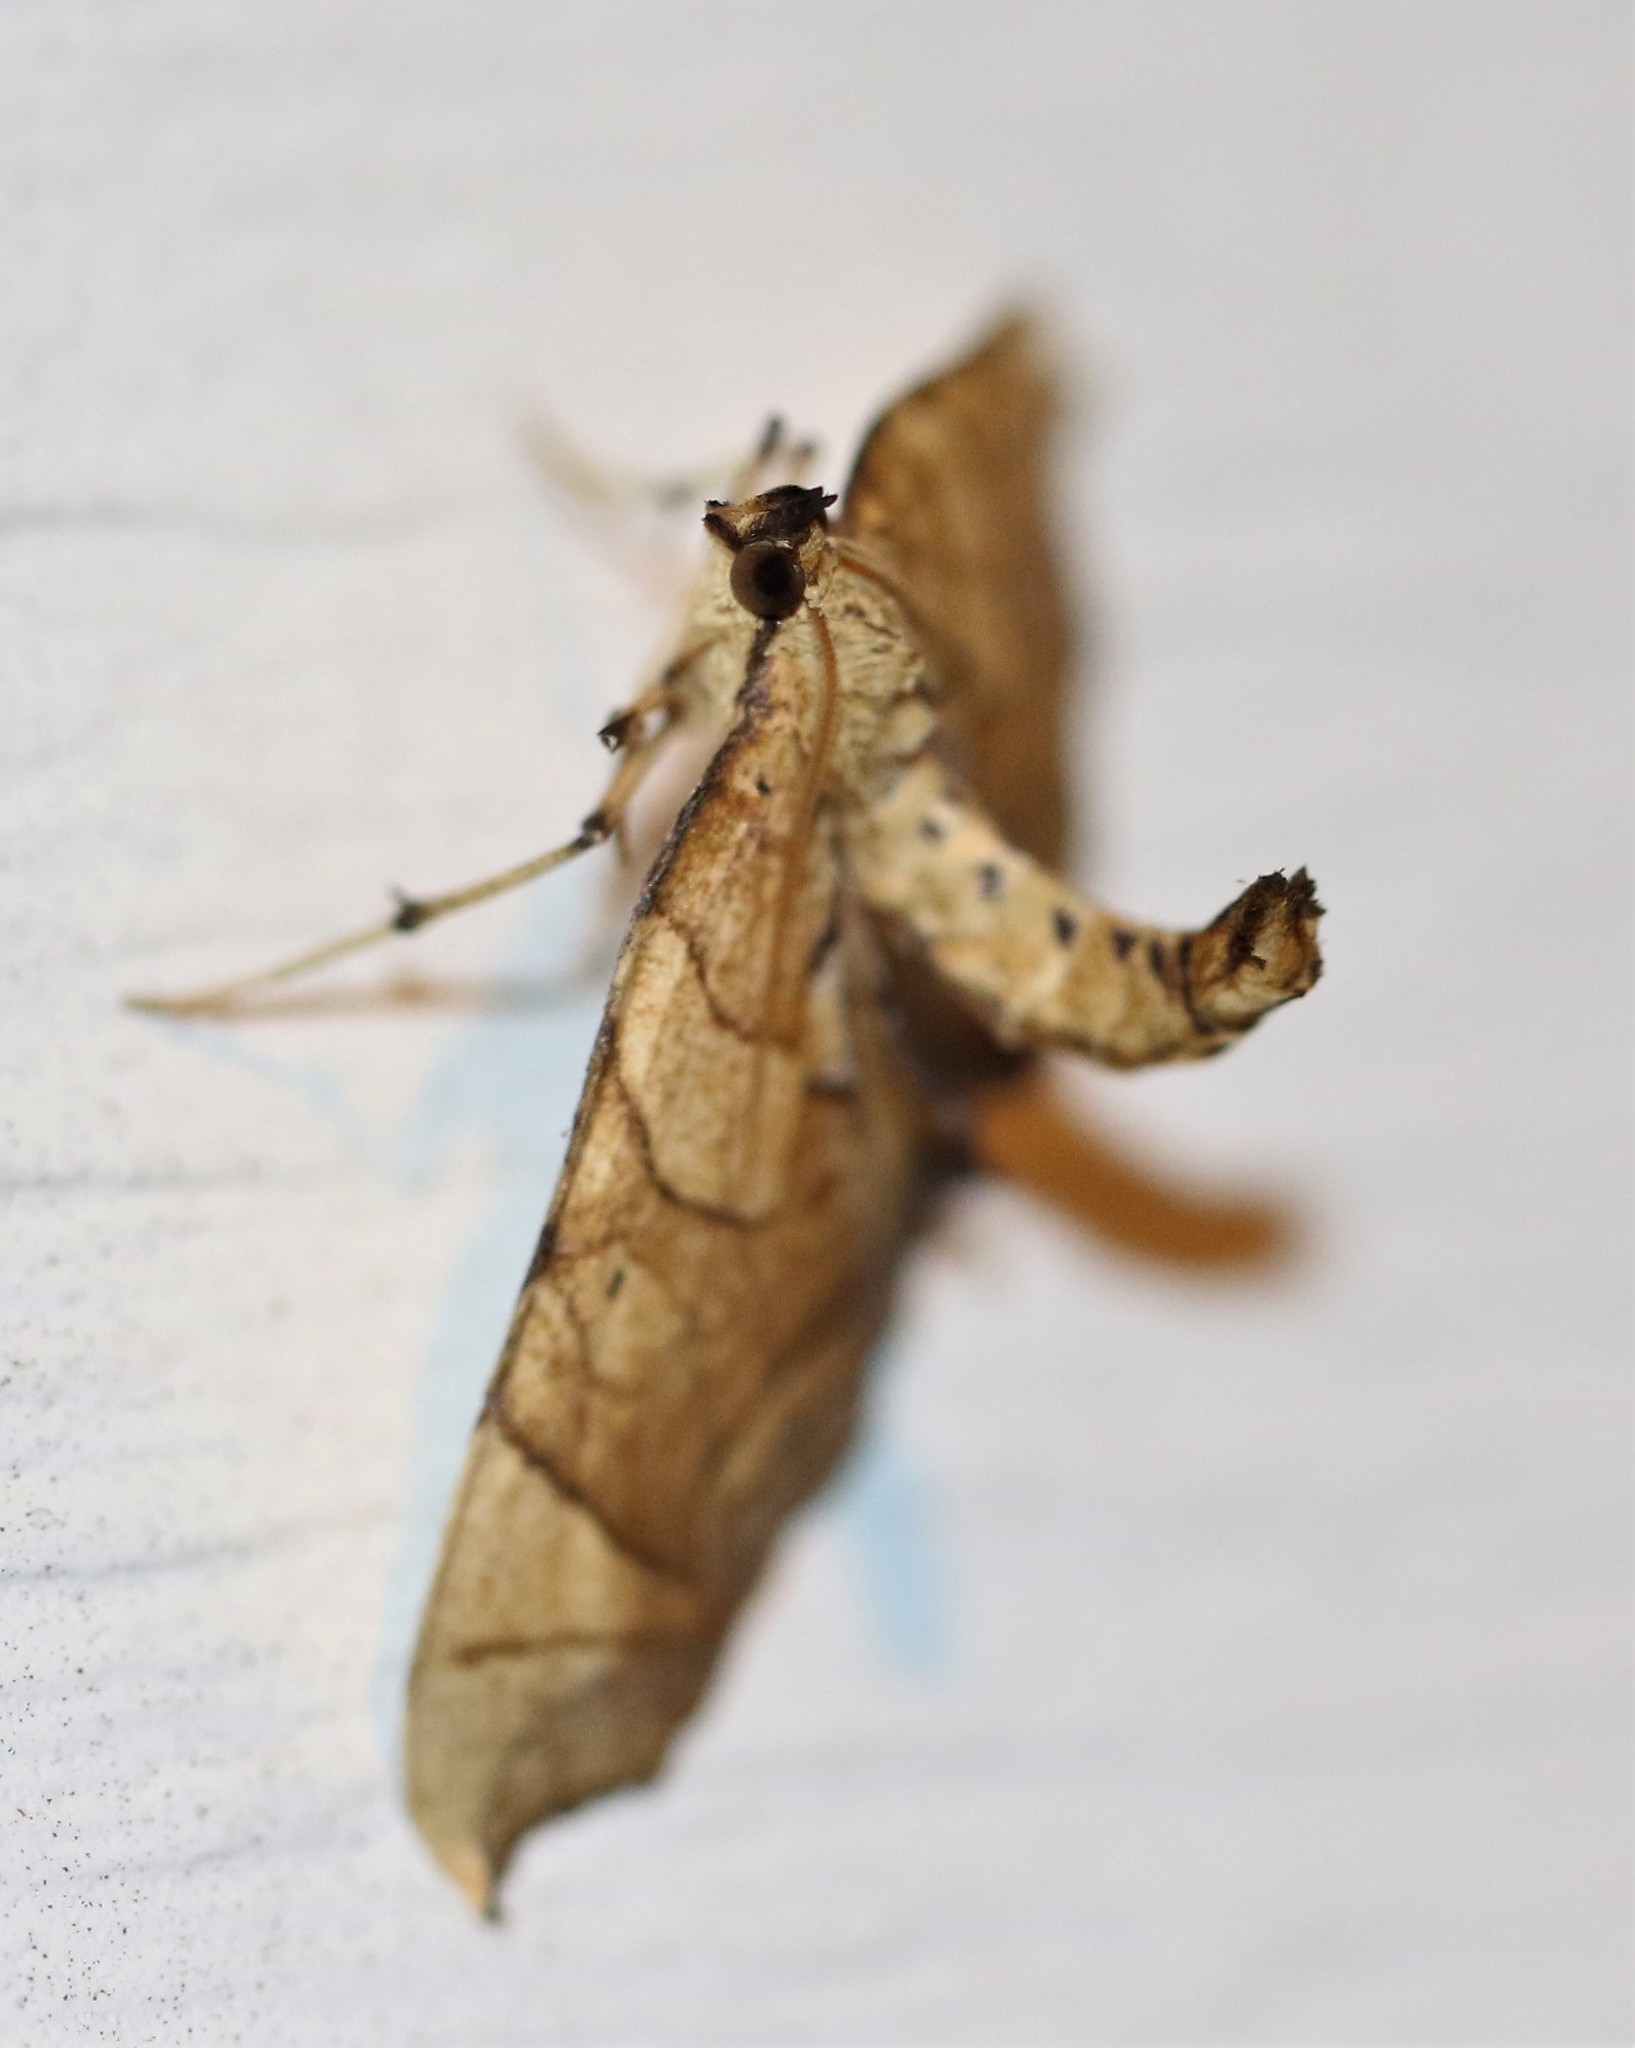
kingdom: Animalia
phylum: Arthropoda
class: Insecta
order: Lepidoptera
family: Geometridae
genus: Eulithis
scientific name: Eulithis
